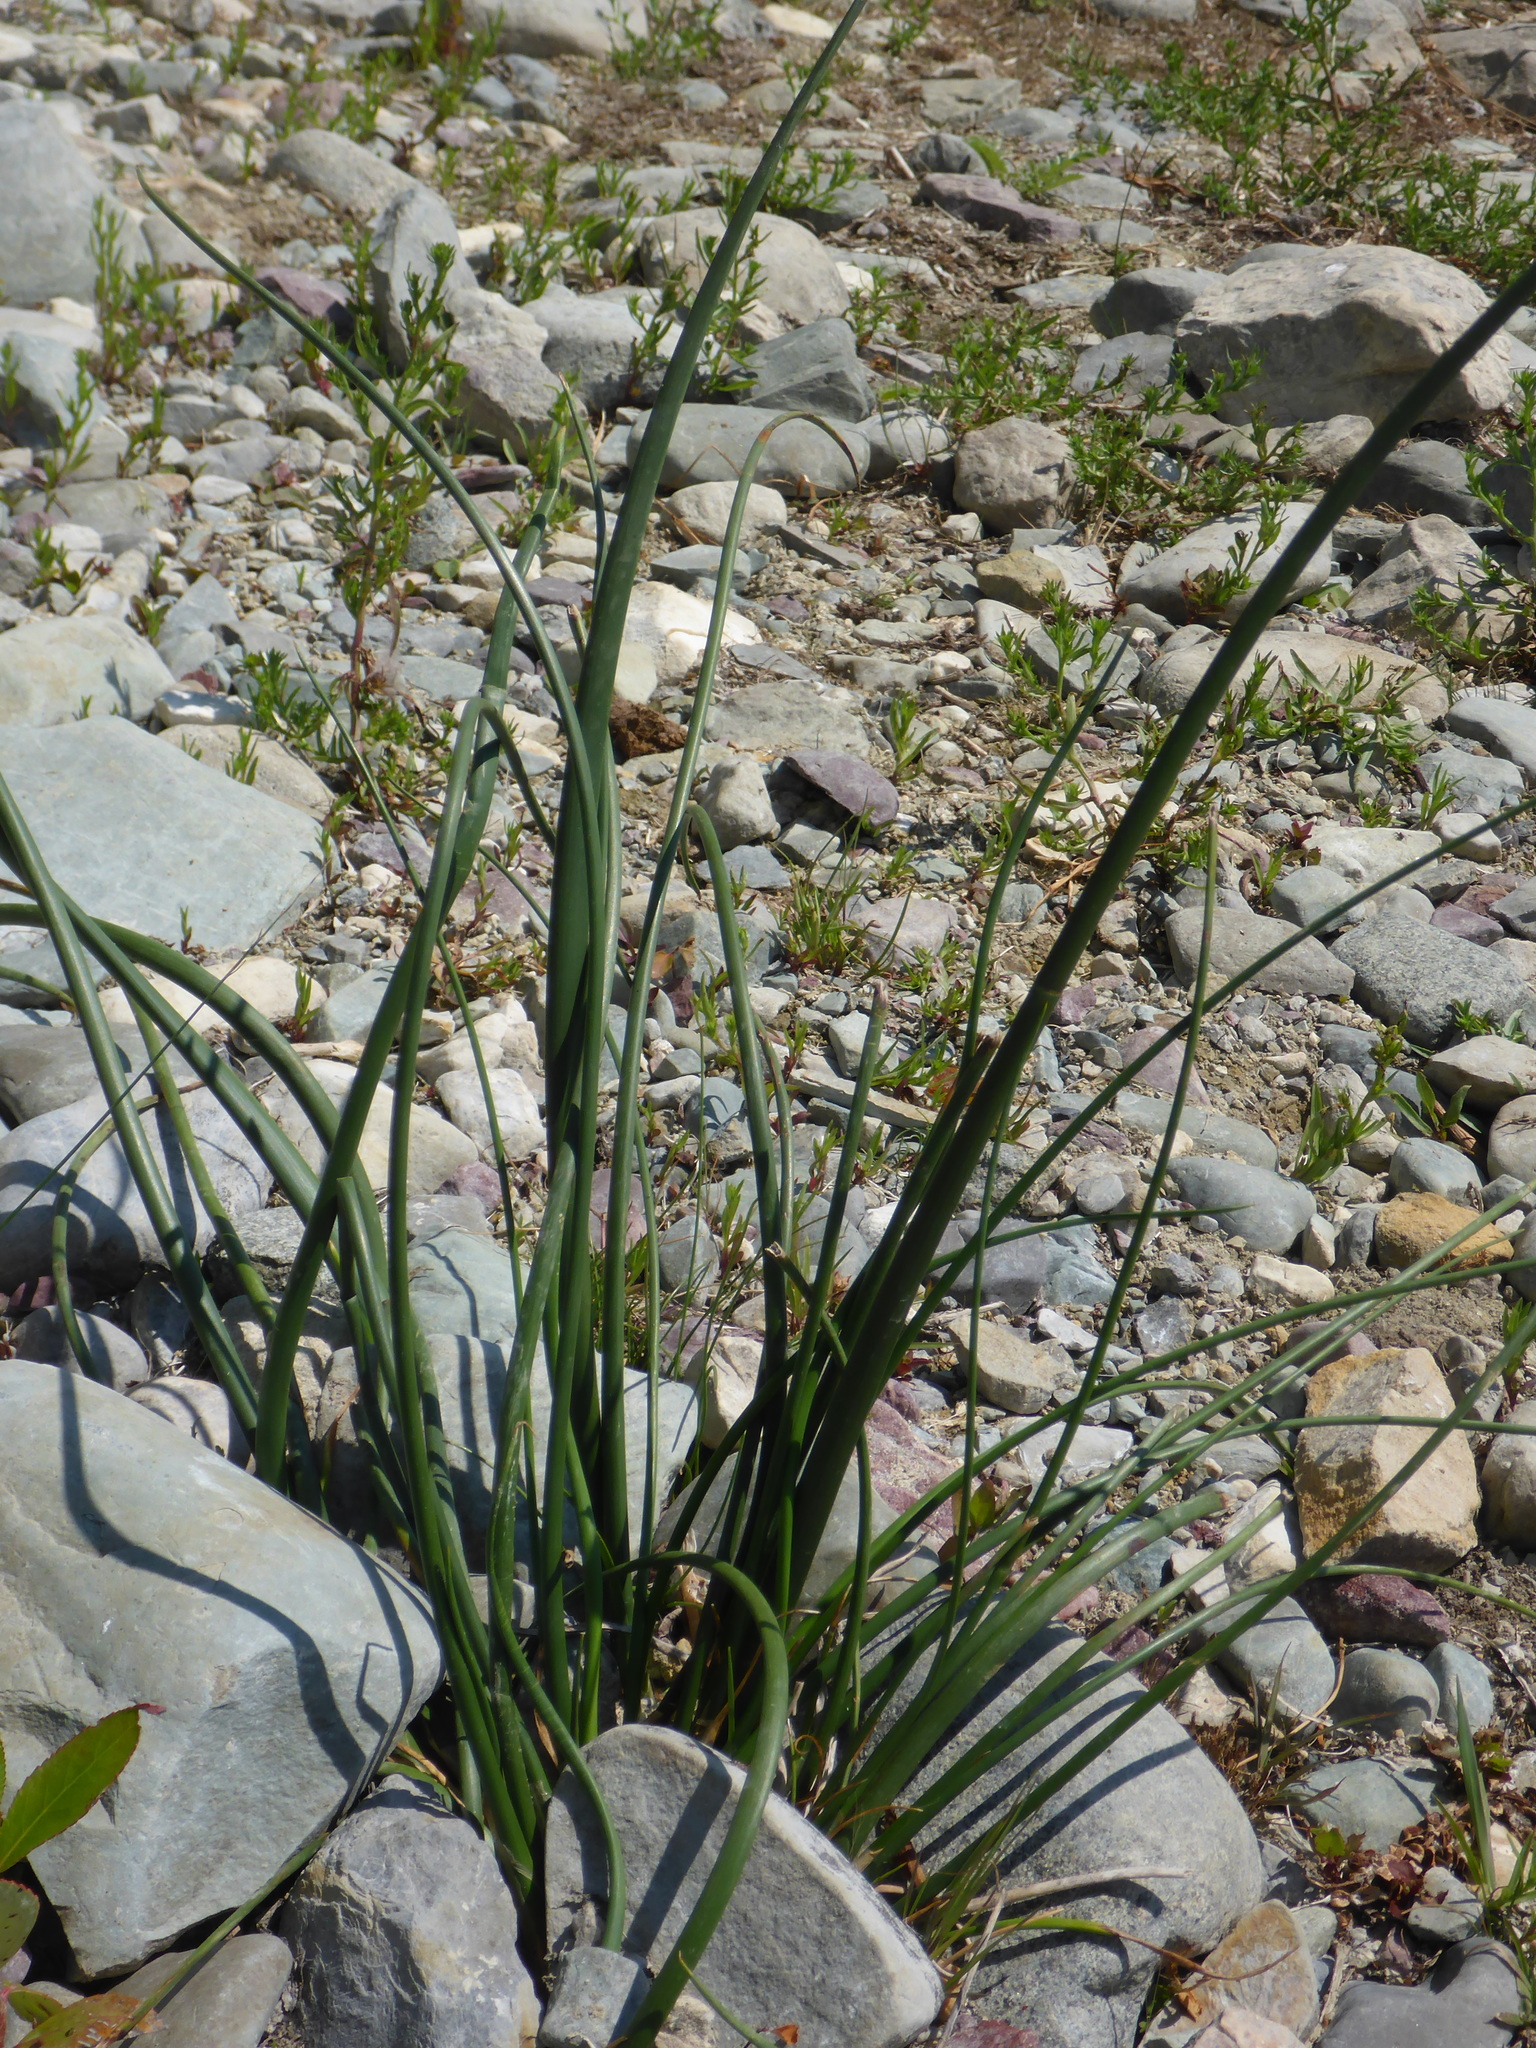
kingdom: Plantae
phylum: Tracheophyta
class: Liliopsida
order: Asparagales
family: Amaryllidaceae
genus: Allium
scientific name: Allium schoenoprasum
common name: Chives
